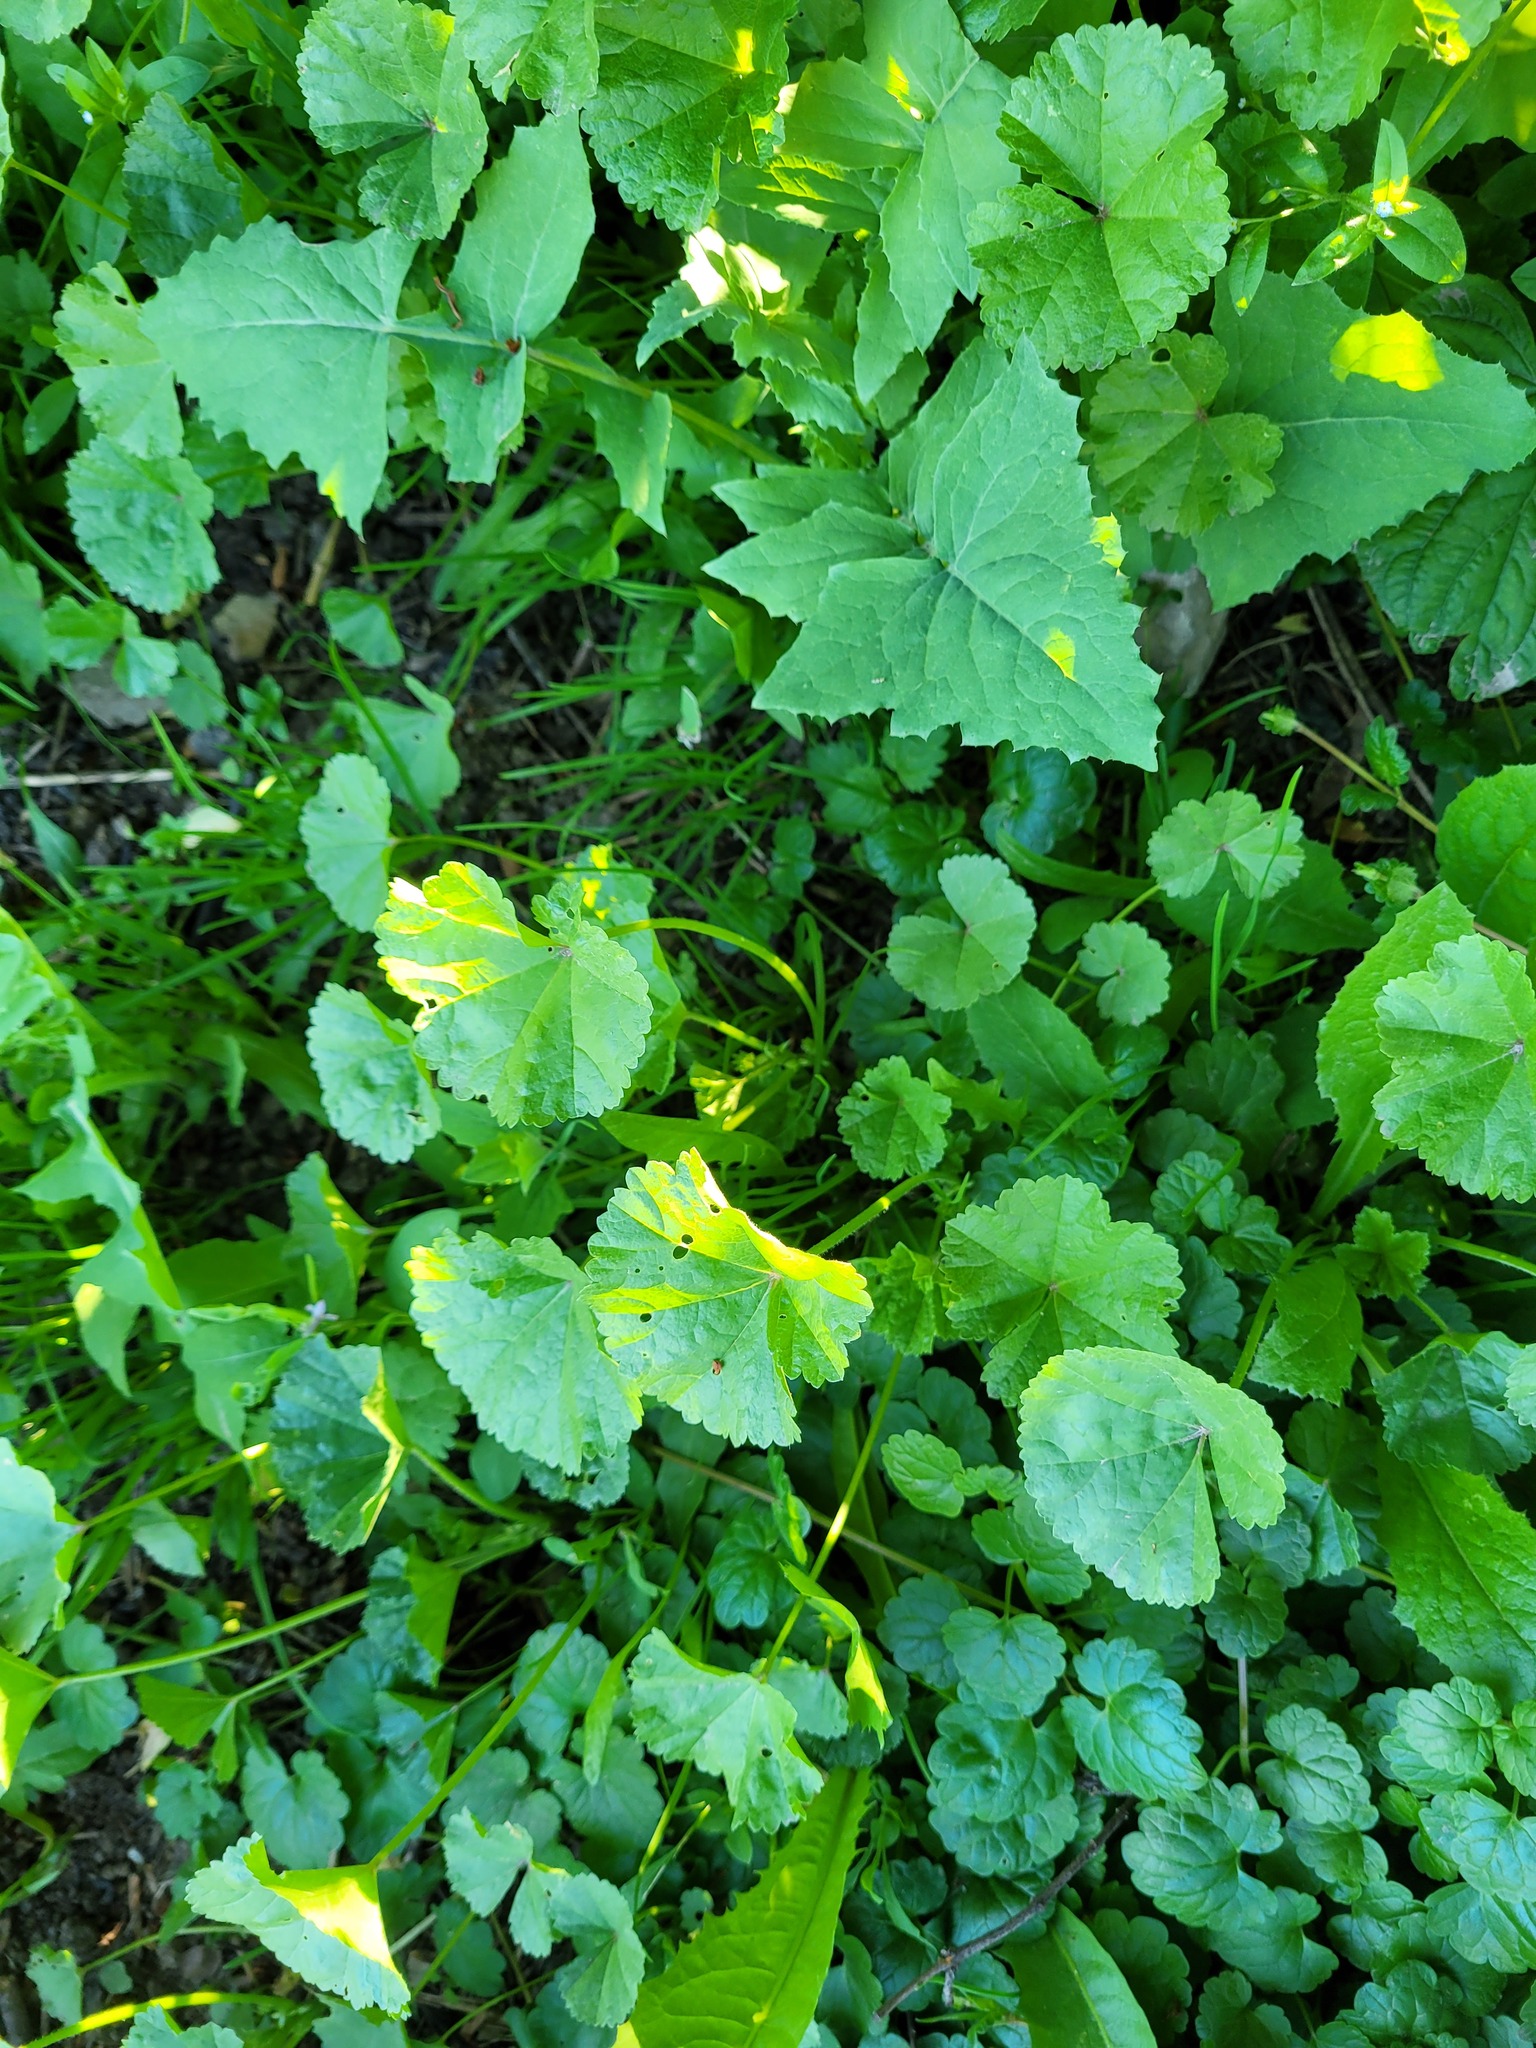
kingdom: Plantae
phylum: Tracheophyta
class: Magnoliopsida
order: Malvales
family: Malvaceae
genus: Malva
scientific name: Malva pusilla
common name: Small mallow
